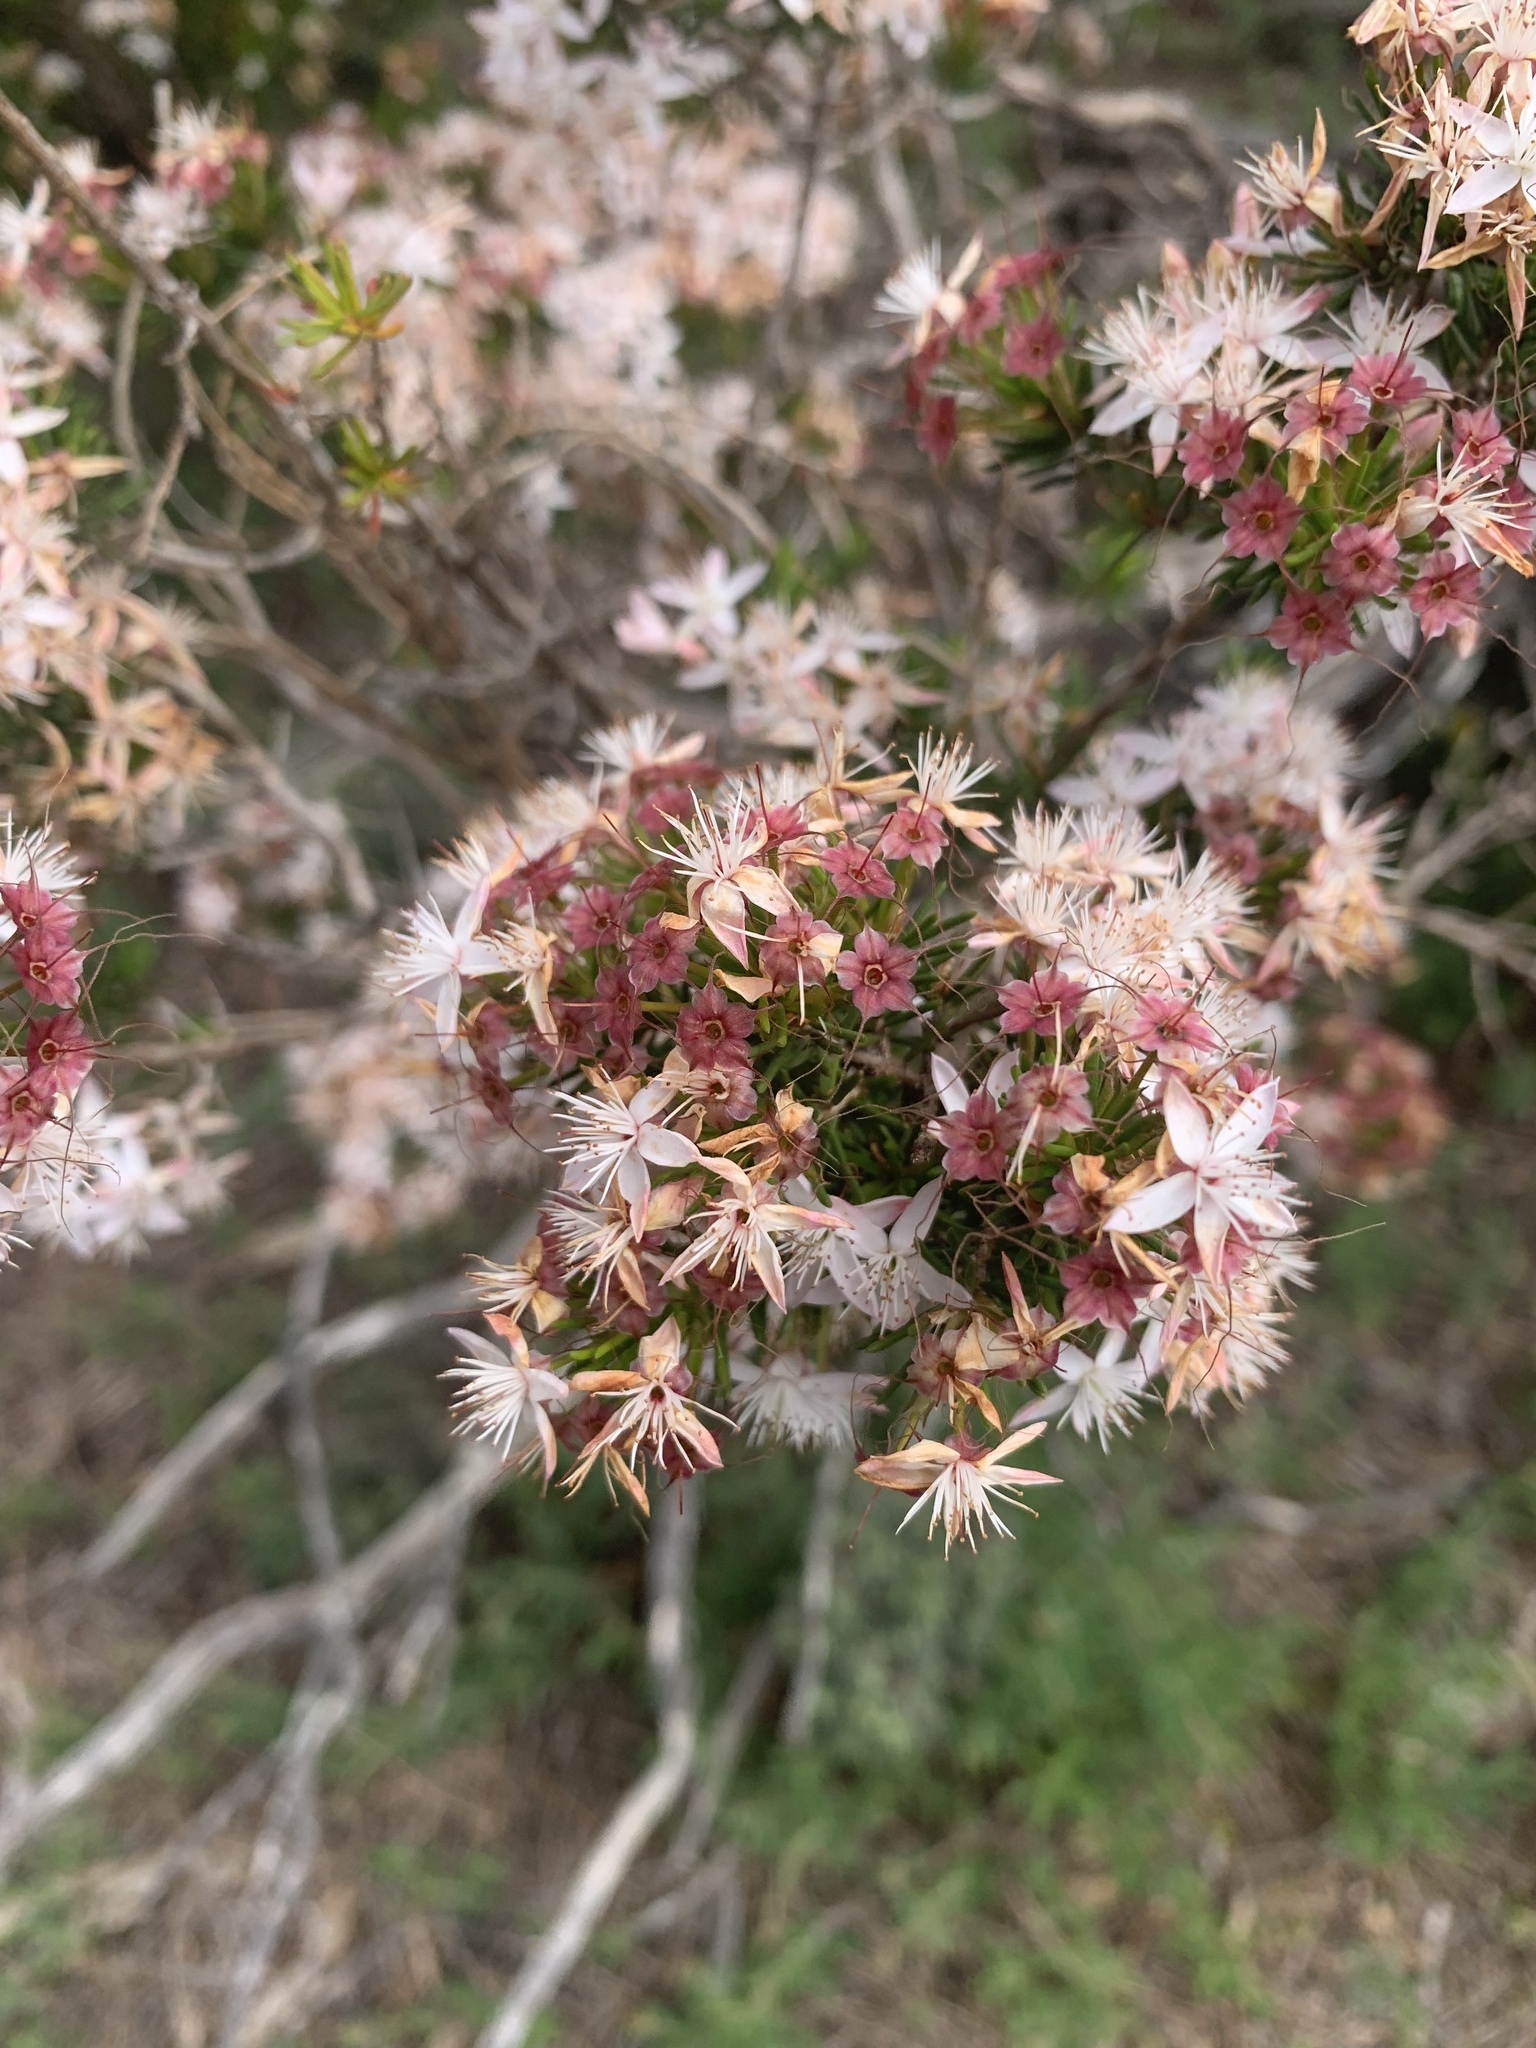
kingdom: Plantae
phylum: Tracheophyta
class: Magnoliopsida
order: Myrtales
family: Myrtaceae
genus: Calytrix
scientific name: Calytrix tetragona
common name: Common fringe myrtle
